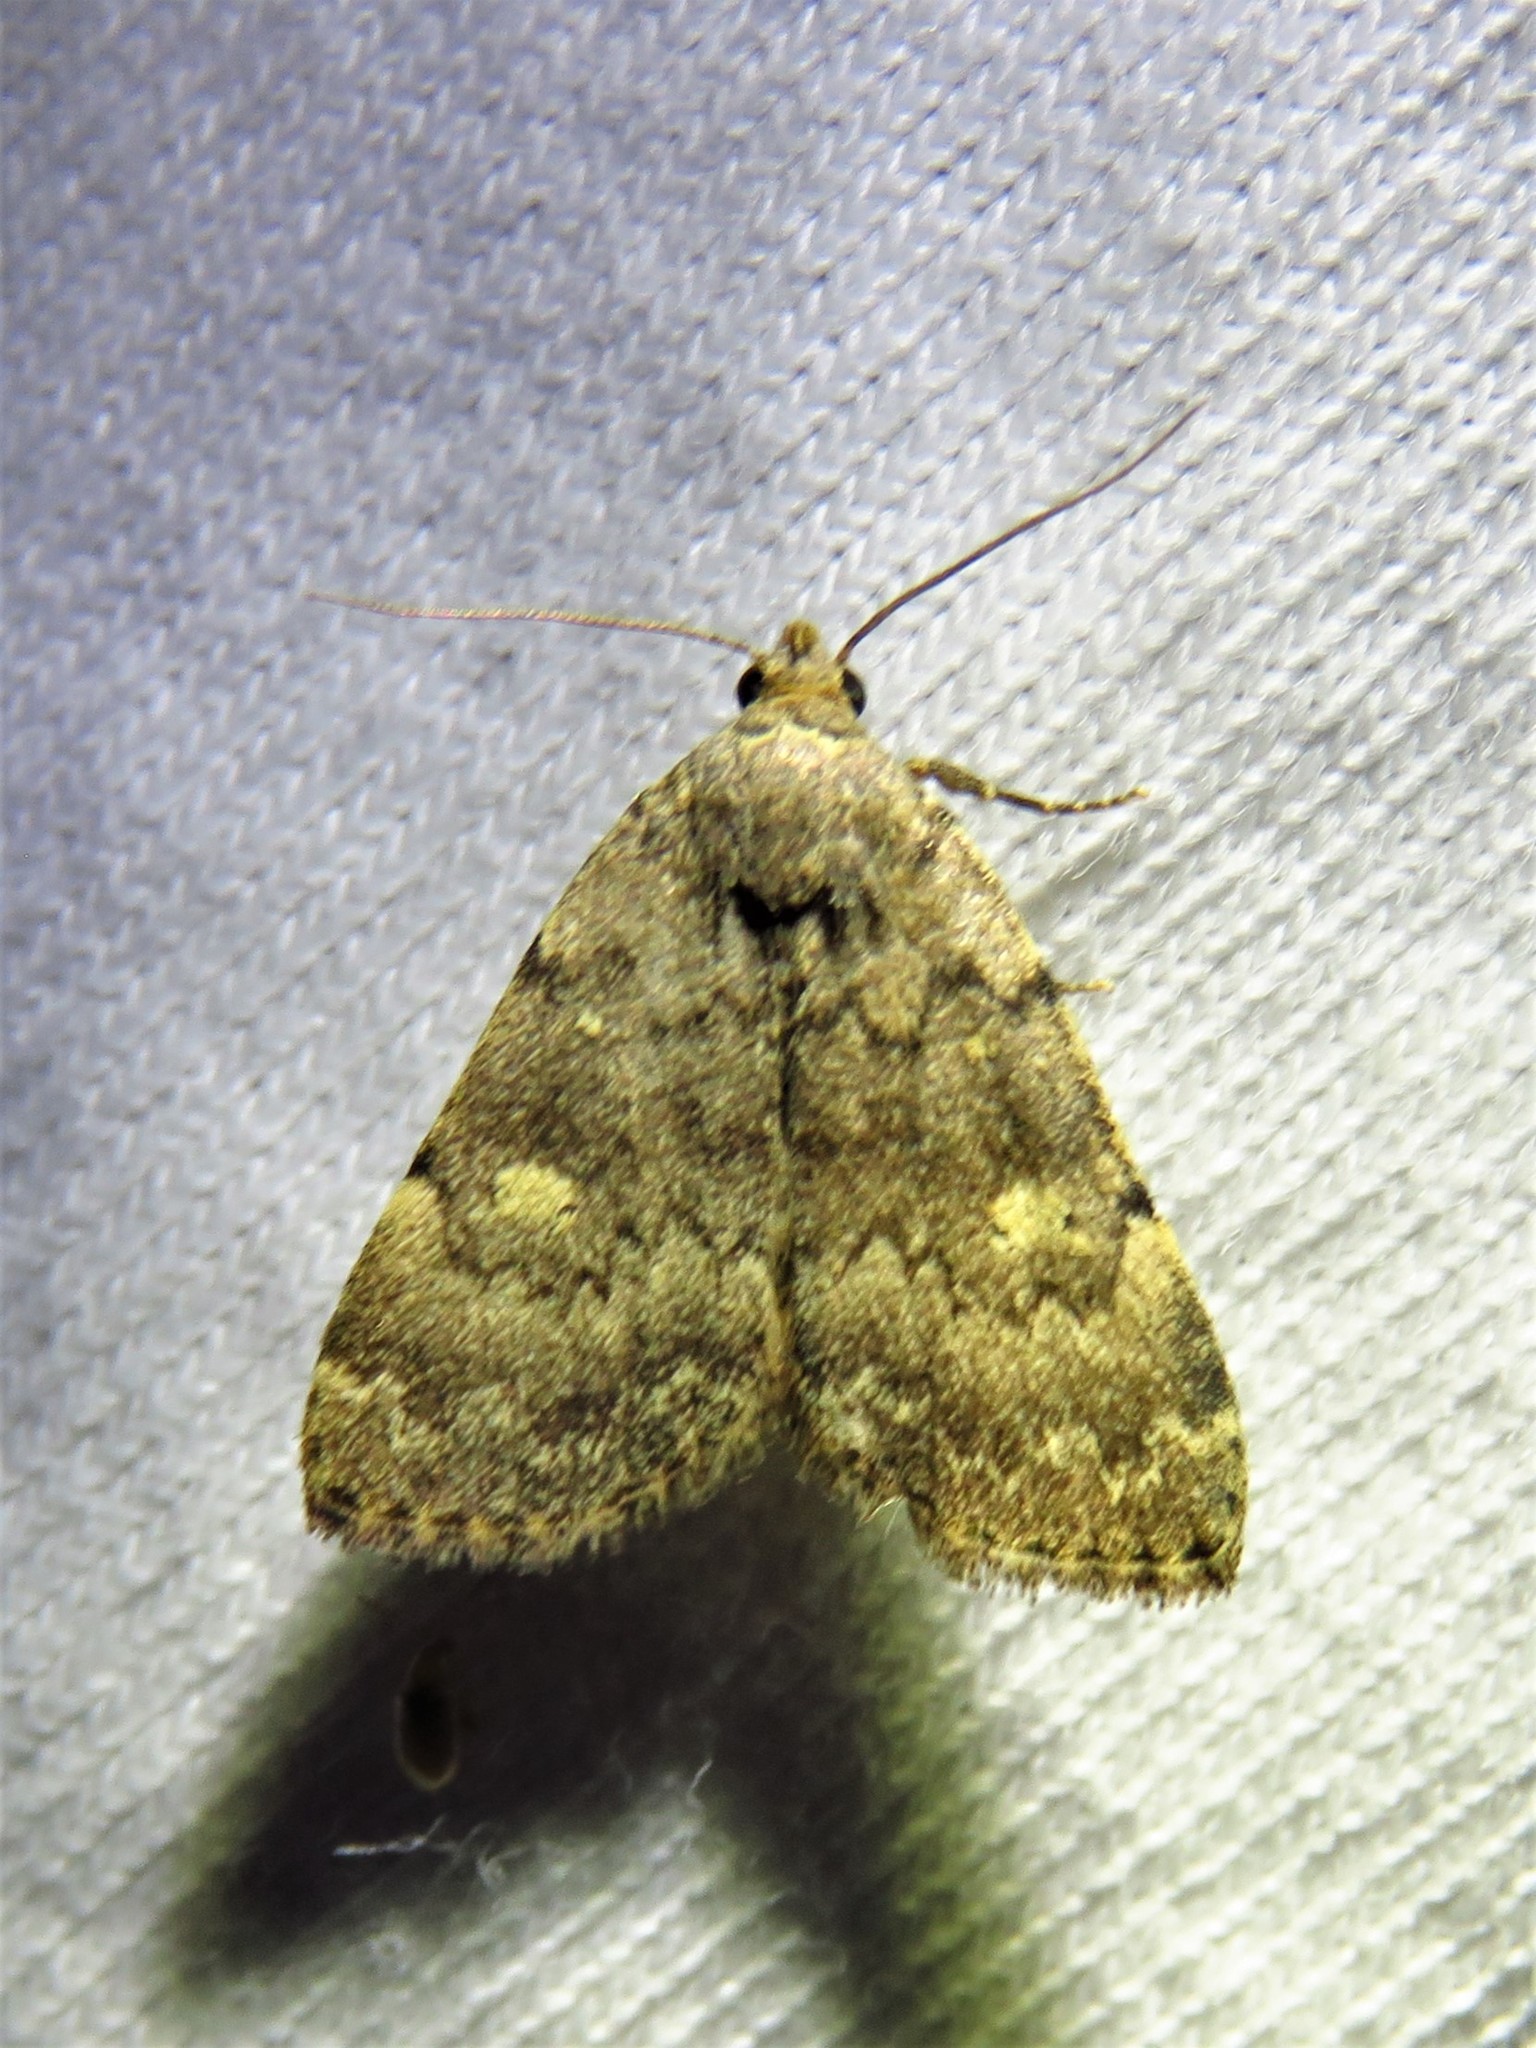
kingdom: Animalia
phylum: Arthropoda
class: Insecta
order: Lepidoptera
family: Erebidae
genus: Idia
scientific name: Idia aemula
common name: Common idia moth
